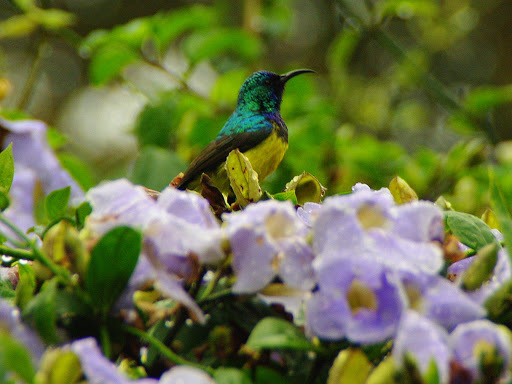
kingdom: Animalia
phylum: Chordata
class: Aves
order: Passeriformes
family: Nectariniidae
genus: Cinnyris
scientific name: Cinnyris venustus
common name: Variable sunbird
